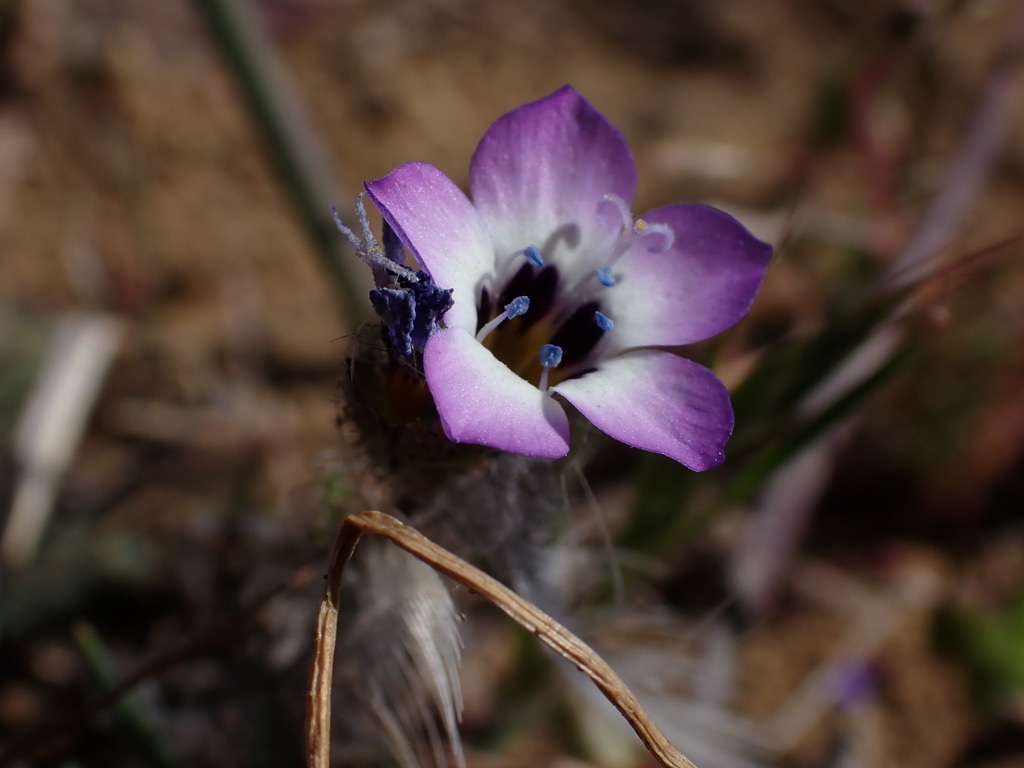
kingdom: Plantae
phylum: Tracheophyta
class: Magnoliopsida
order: Ericales
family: Polemoniaceae
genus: Gilia
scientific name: Gilia tricolor
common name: Bird's-eyes
